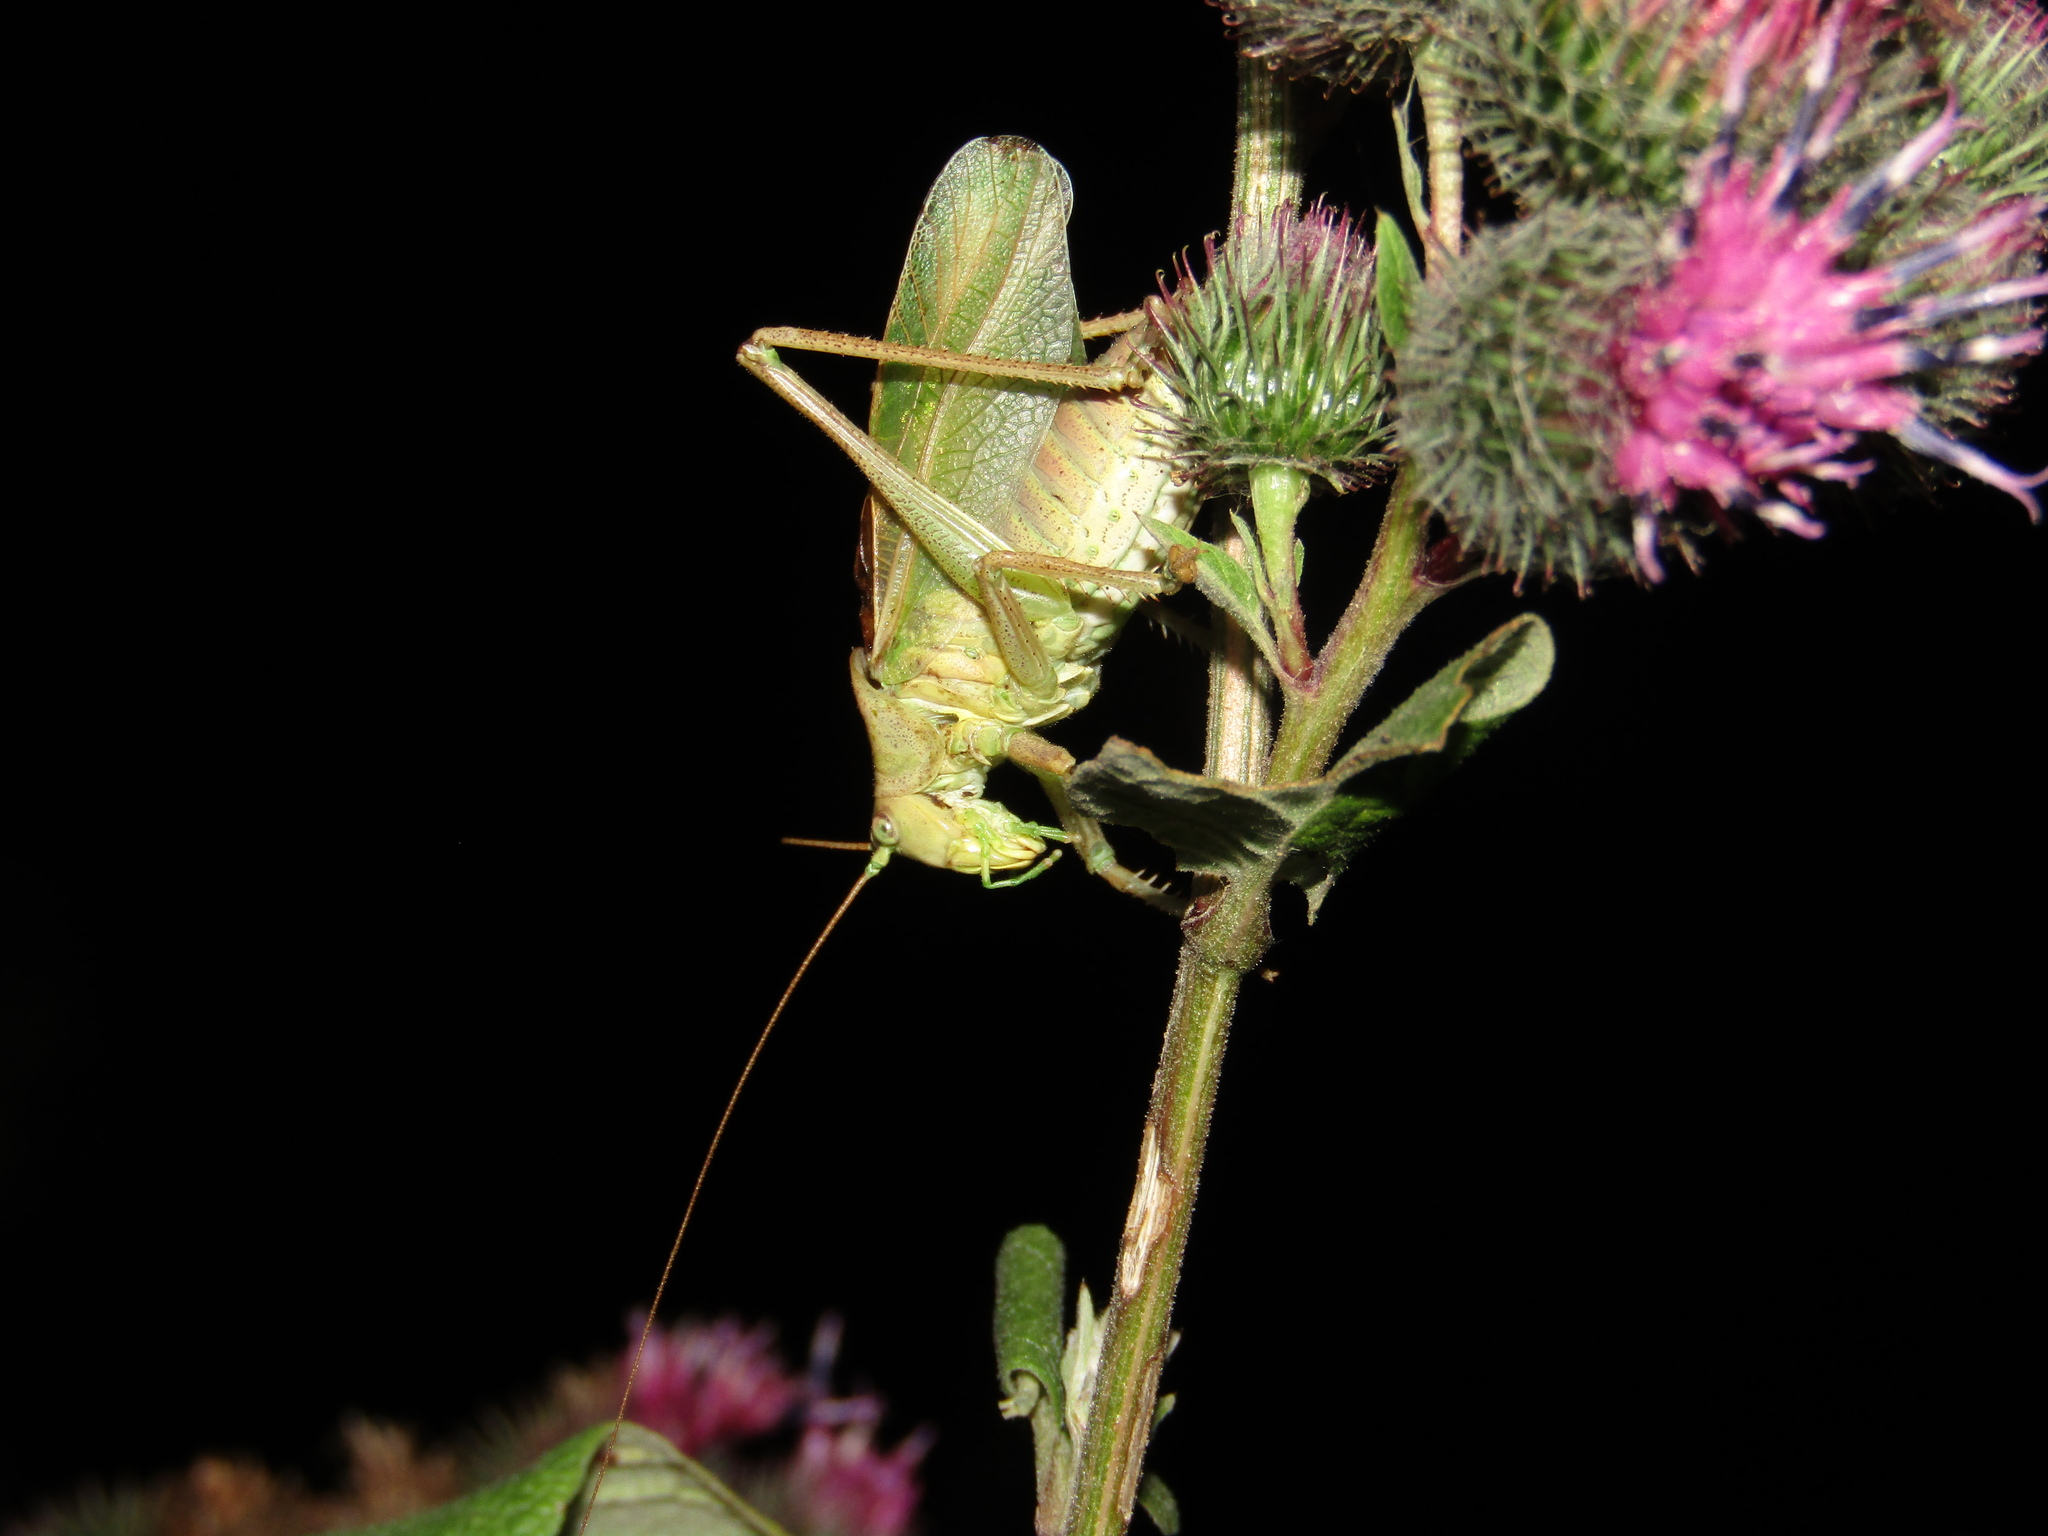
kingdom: Animalia
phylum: Arthropoda
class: Insecta
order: Orthoptera
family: Tettigoniidae
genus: Tettigonia
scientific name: Tettigonia cantans
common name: Upland green bush-cricket
